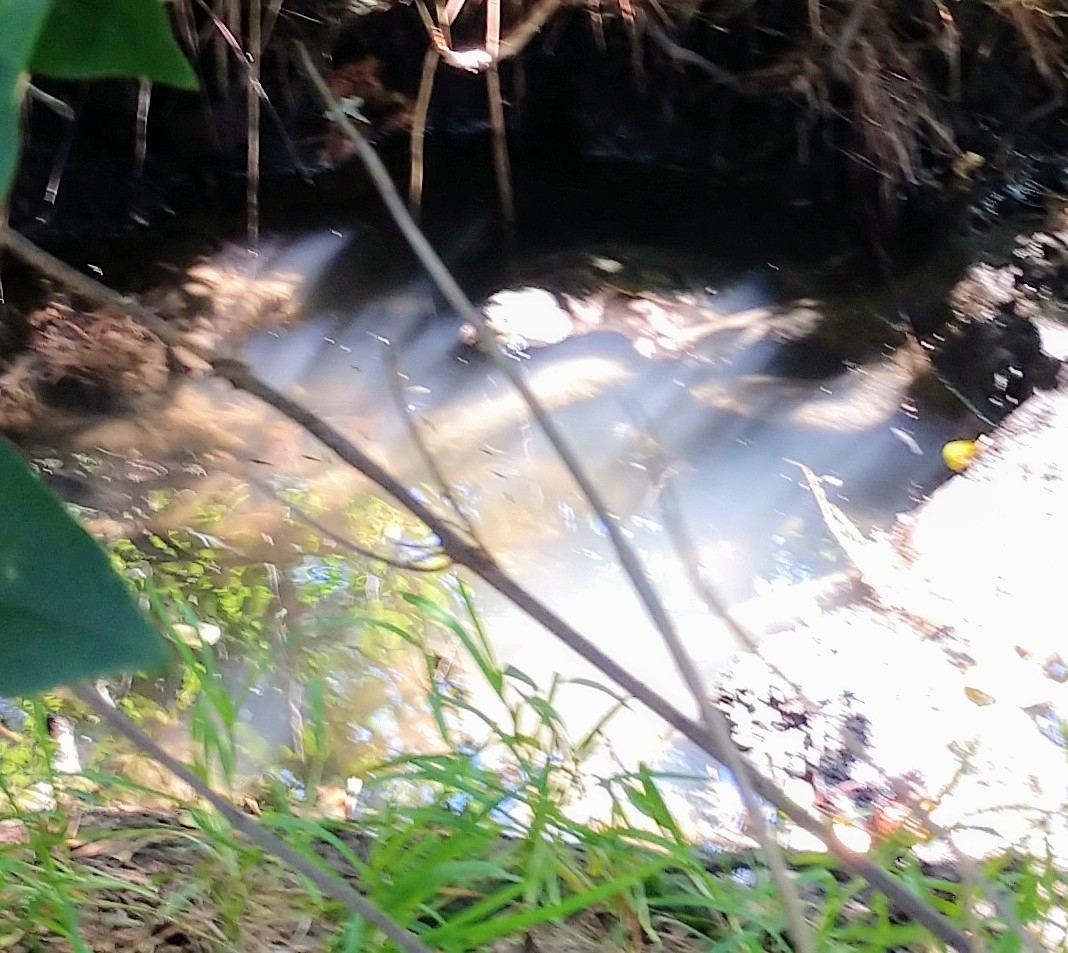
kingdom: Animalia
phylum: Chordata
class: Testudines
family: Chelydridae
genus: Chelydra
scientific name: Chelydra serpentina
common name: Common snapping turtle
